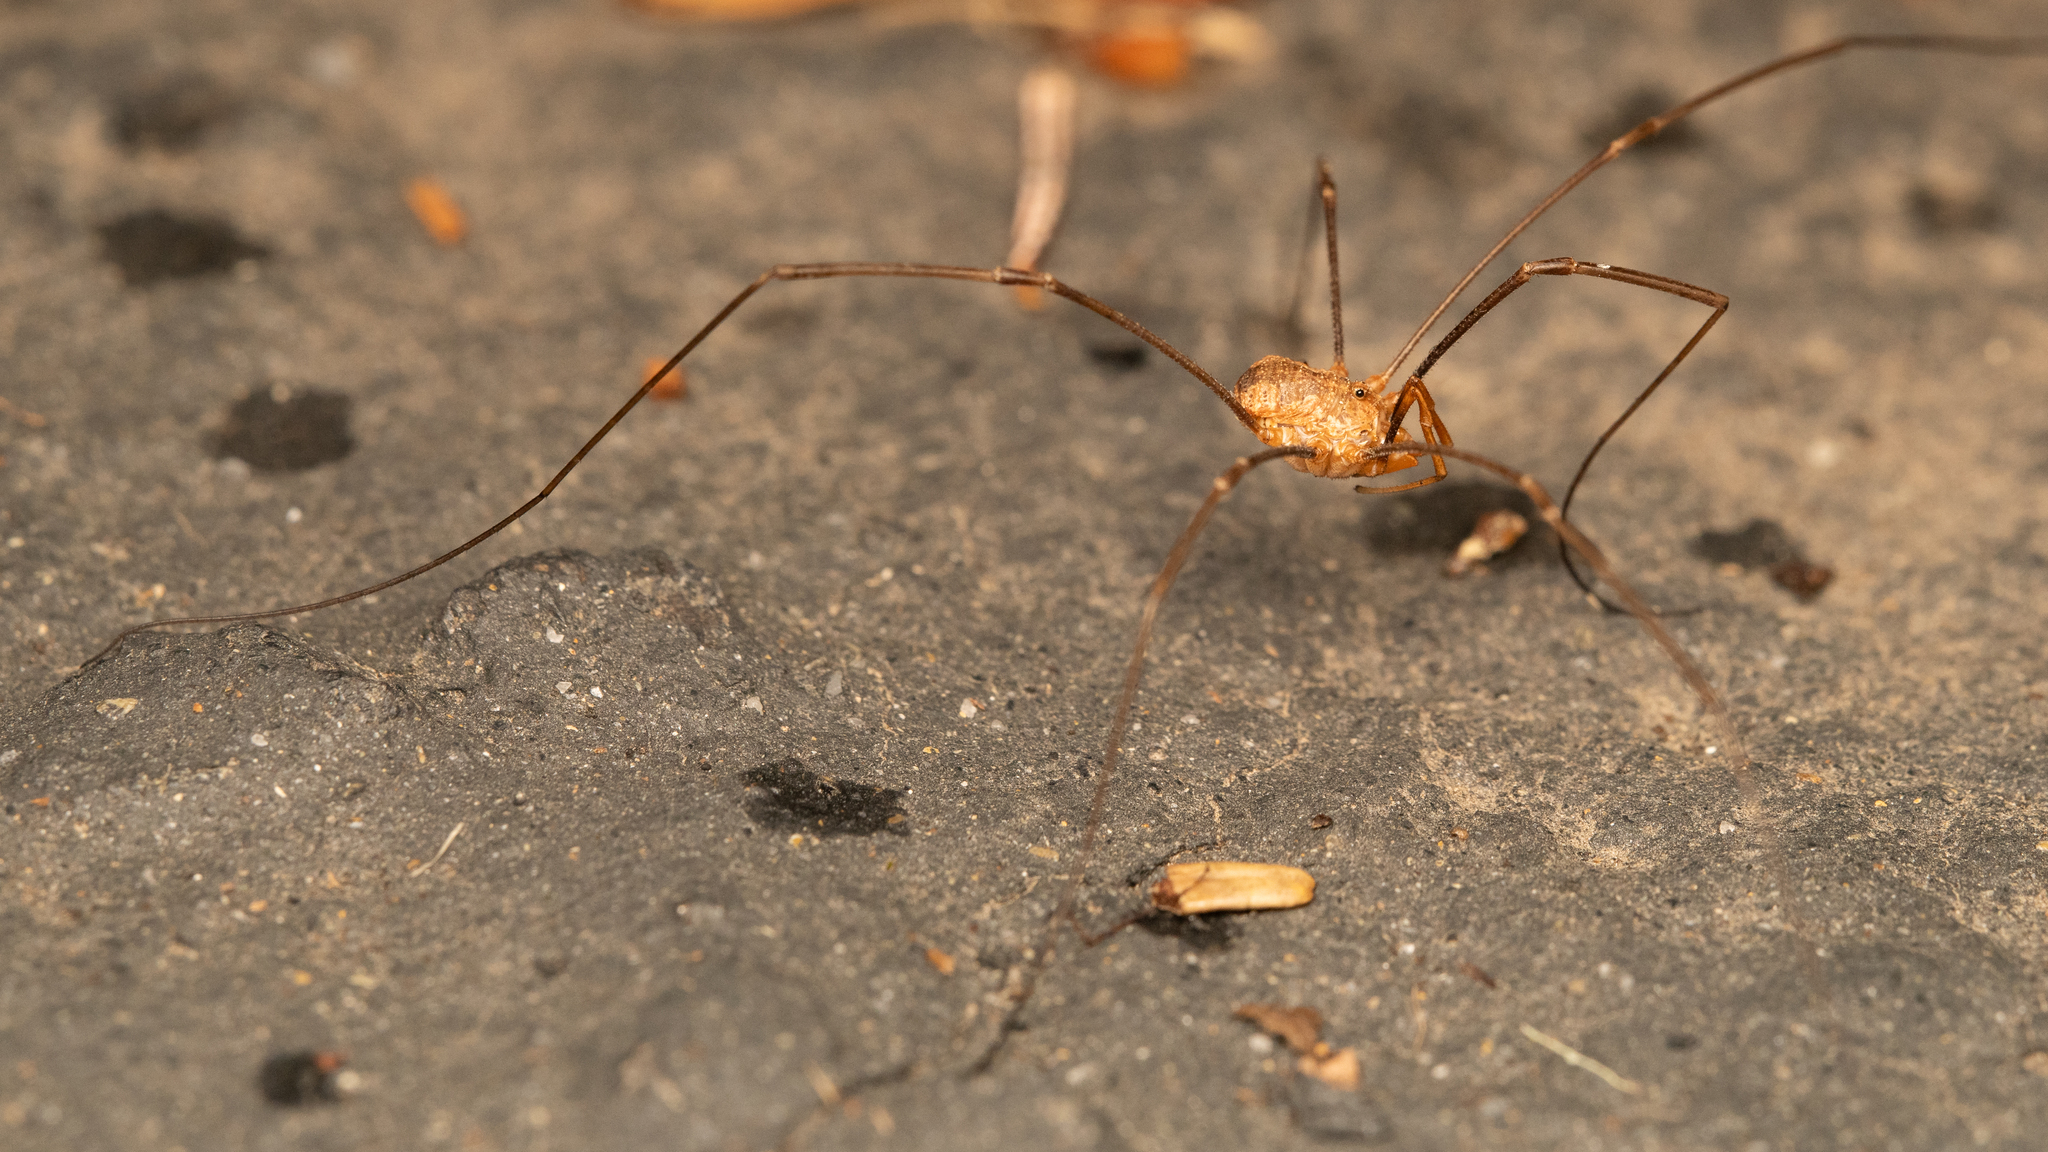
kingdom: Animalia
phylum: Arthropoda
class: Arachnida
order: Opiliones
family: Phalangiidae
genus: Phalangium
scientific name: Phalangium opilio
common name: Daddy longleg
